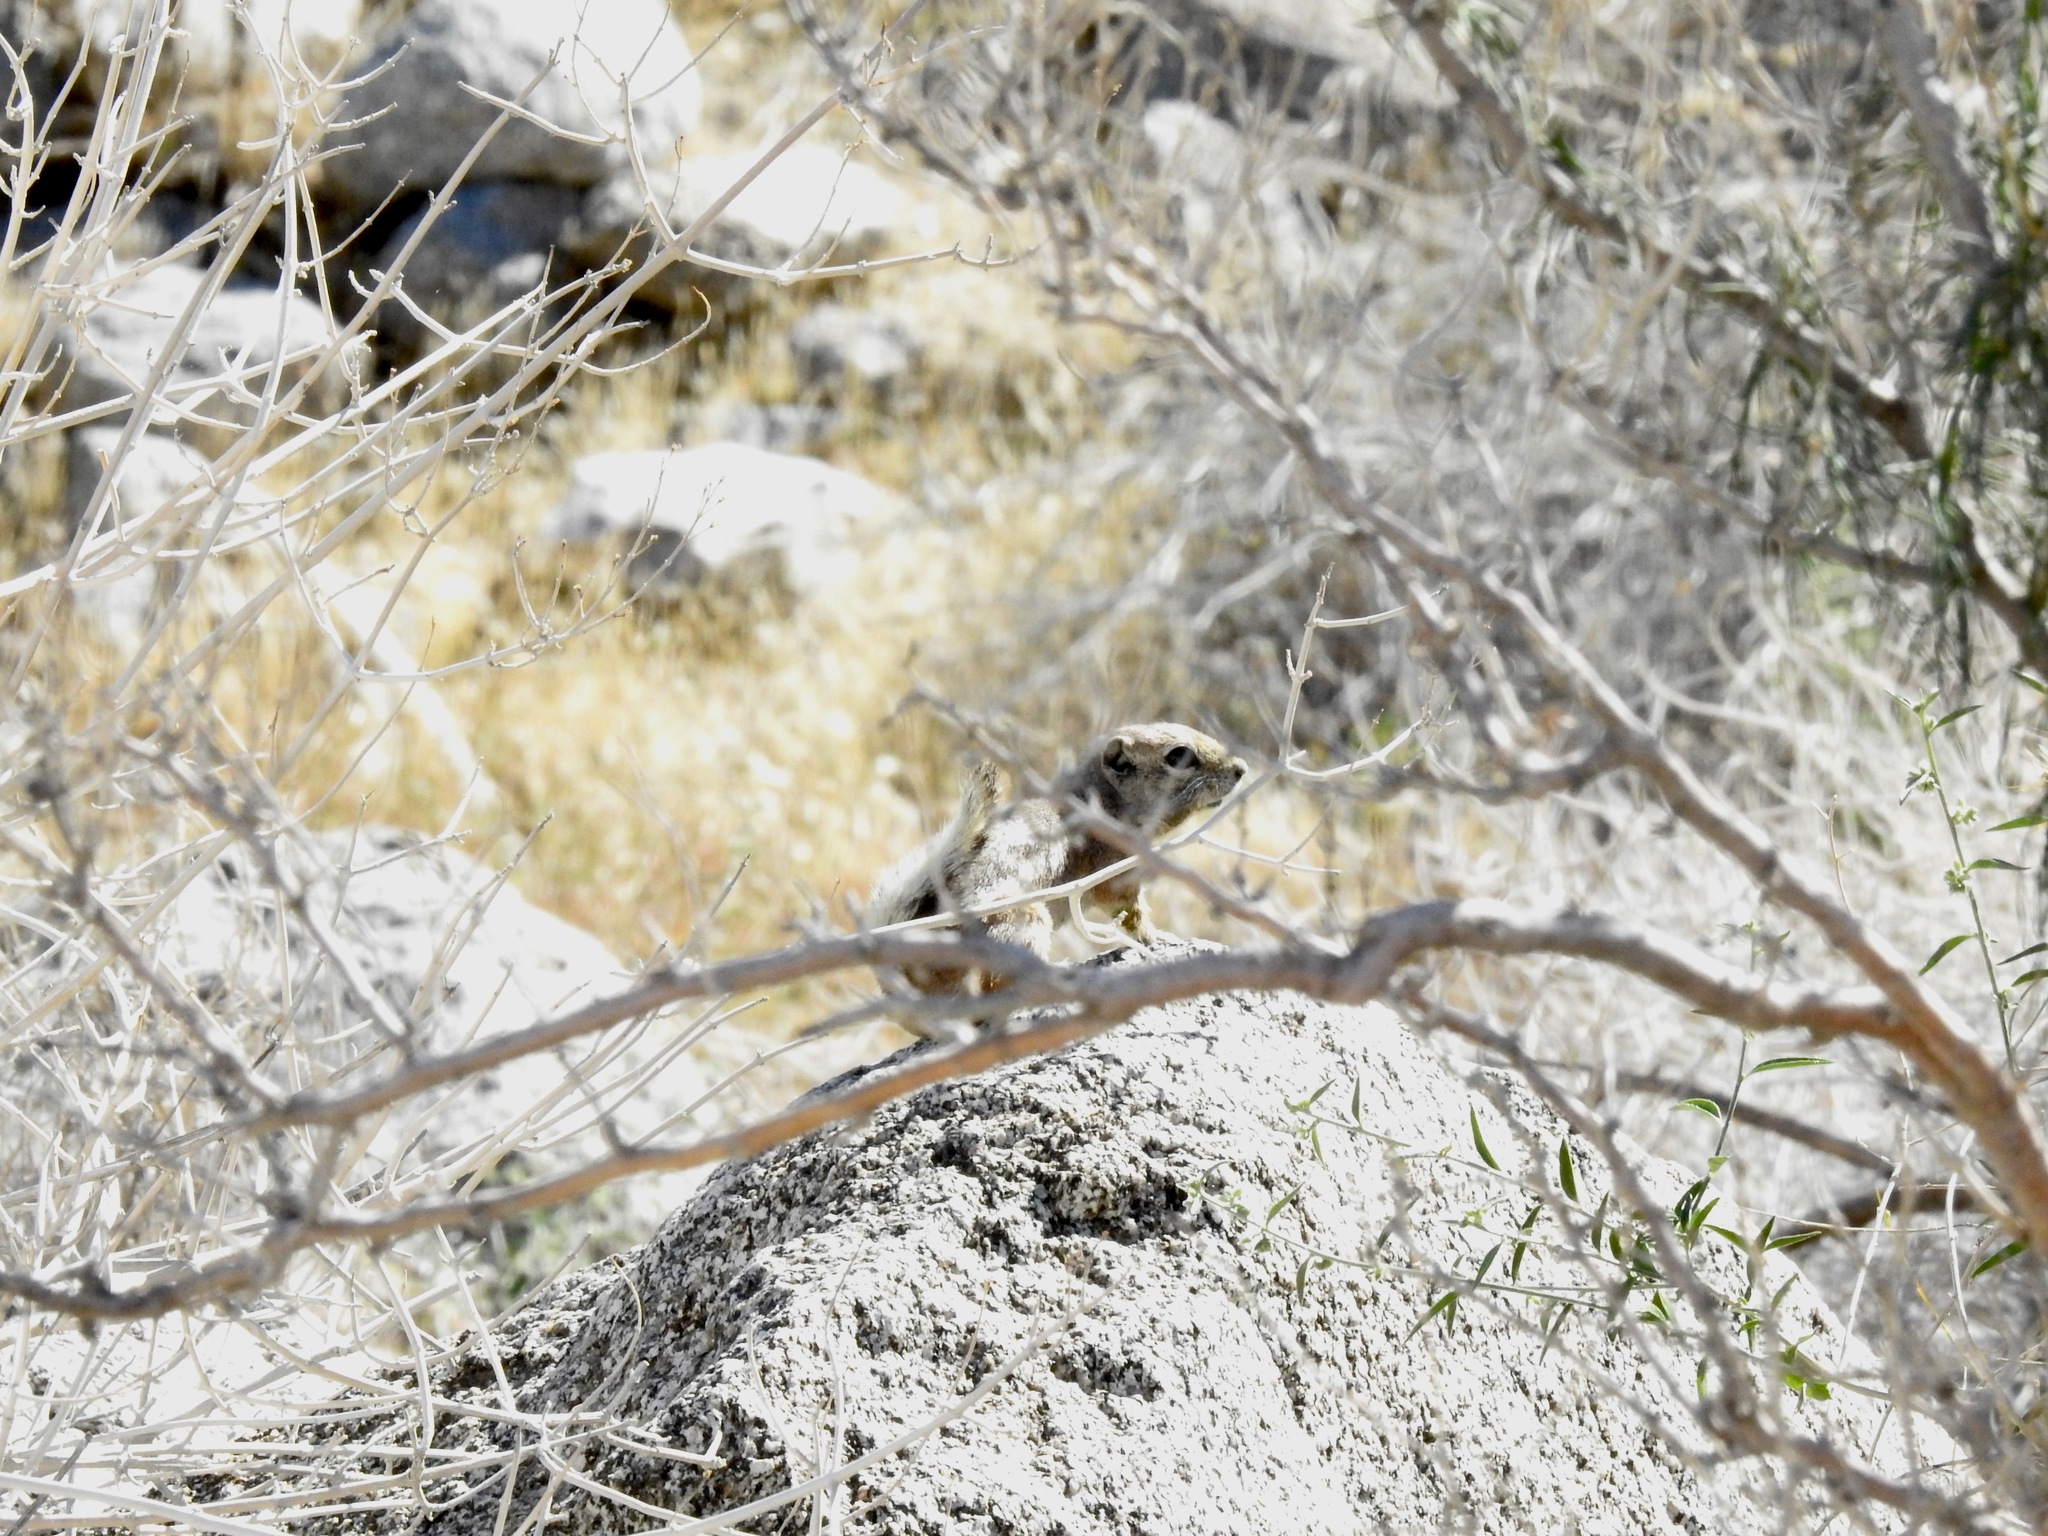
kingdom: Animalia
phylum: Chordata
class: Mammalia
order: Rodentia
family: Sciuridae
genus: Ammospermophilus
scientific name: Ammospermophilus leucurus
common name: White-tailed antelope squirrel
